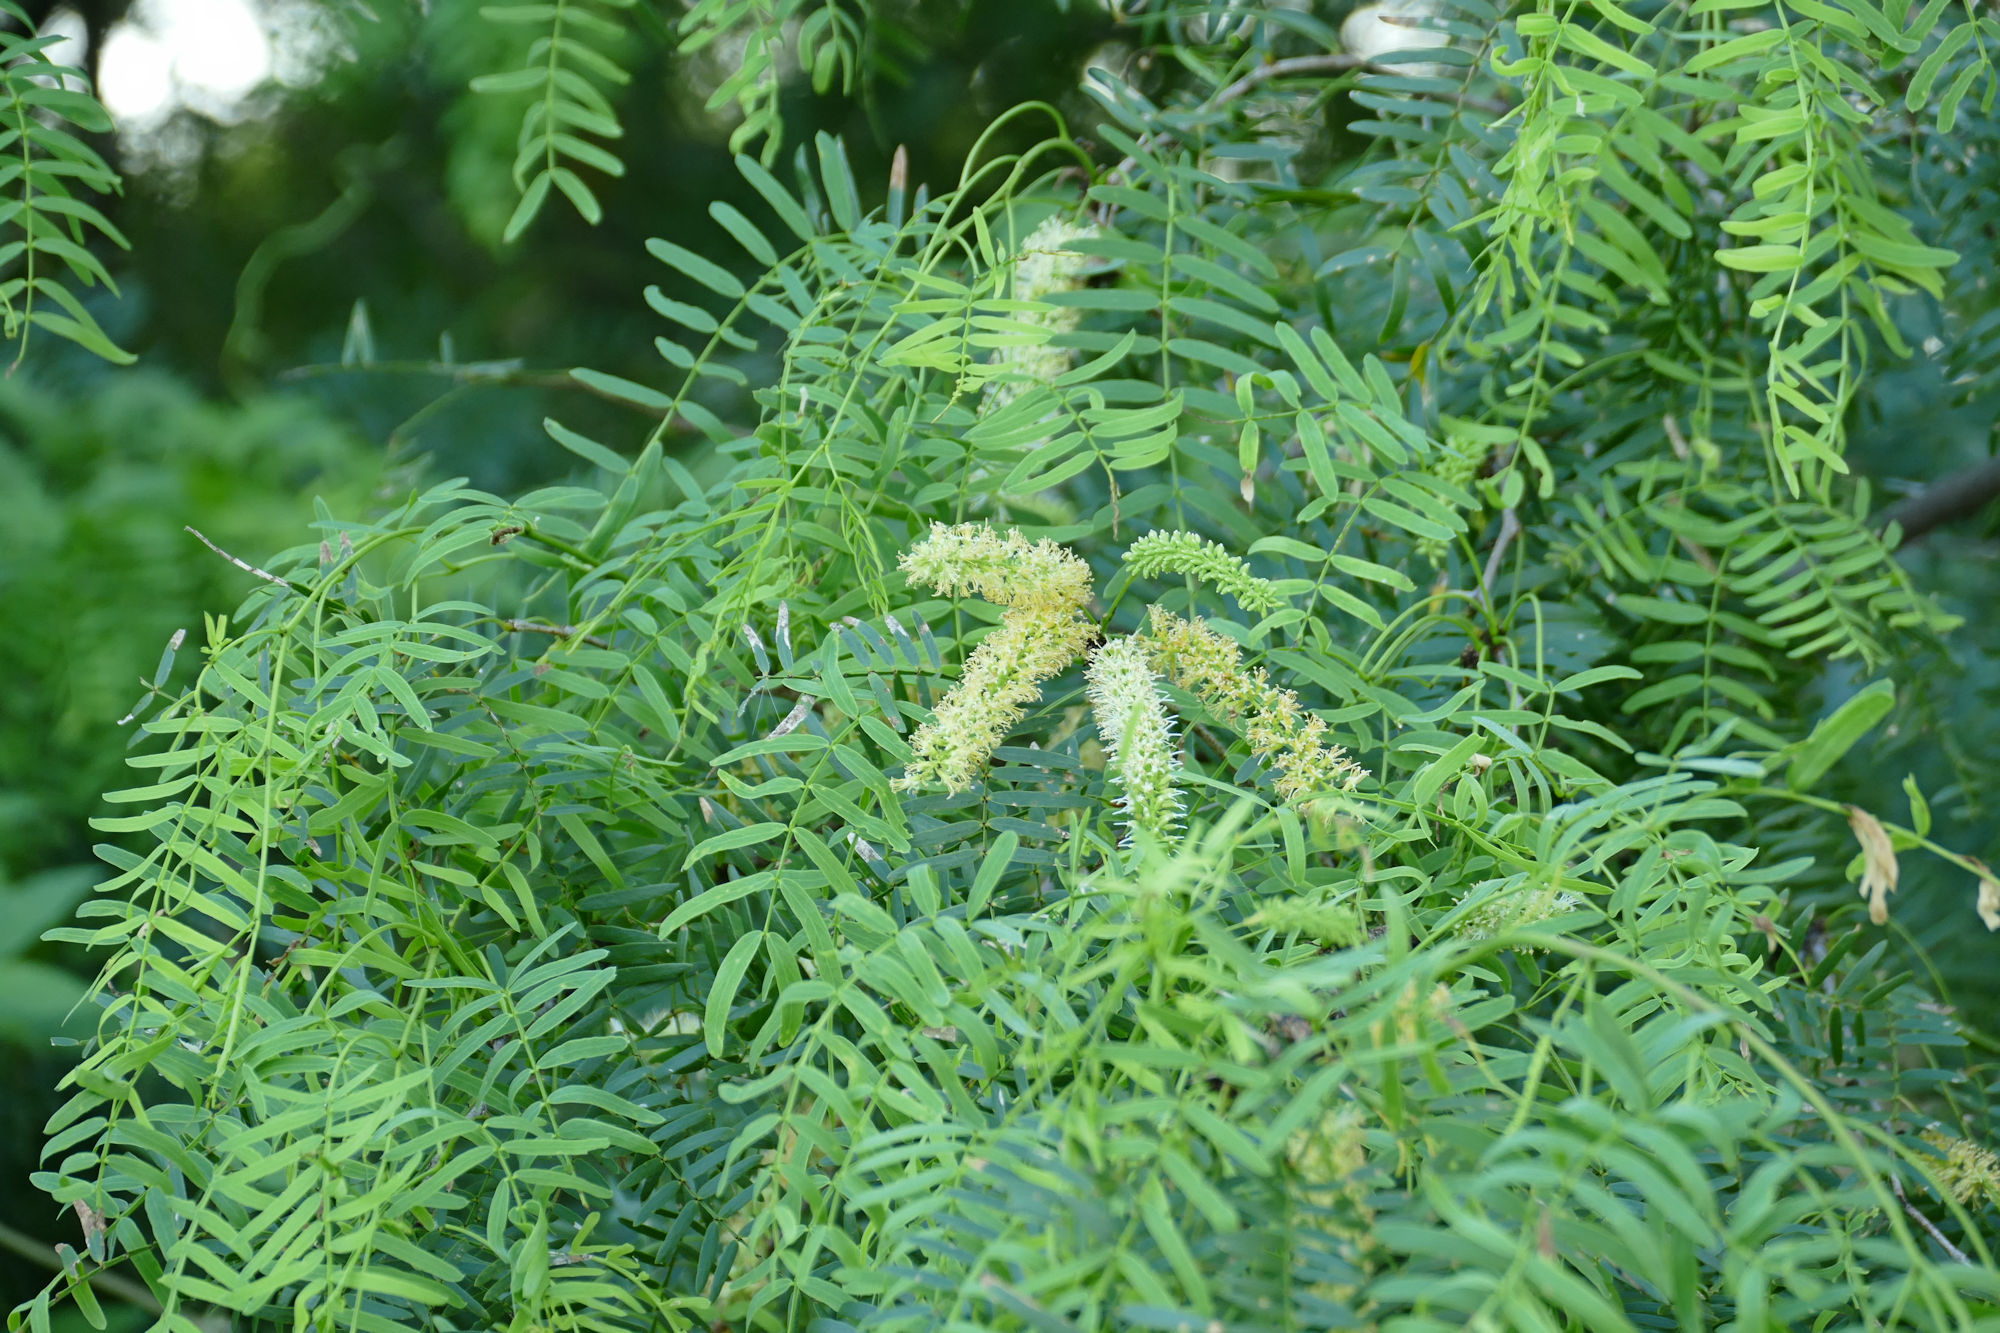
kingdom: Plantae
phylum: Tracheophyta
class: Magnoliopsida
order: Fabales
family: Fabaceae
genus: Prosopis
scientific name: Prosopis glandulosa
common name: Honey mesquite
